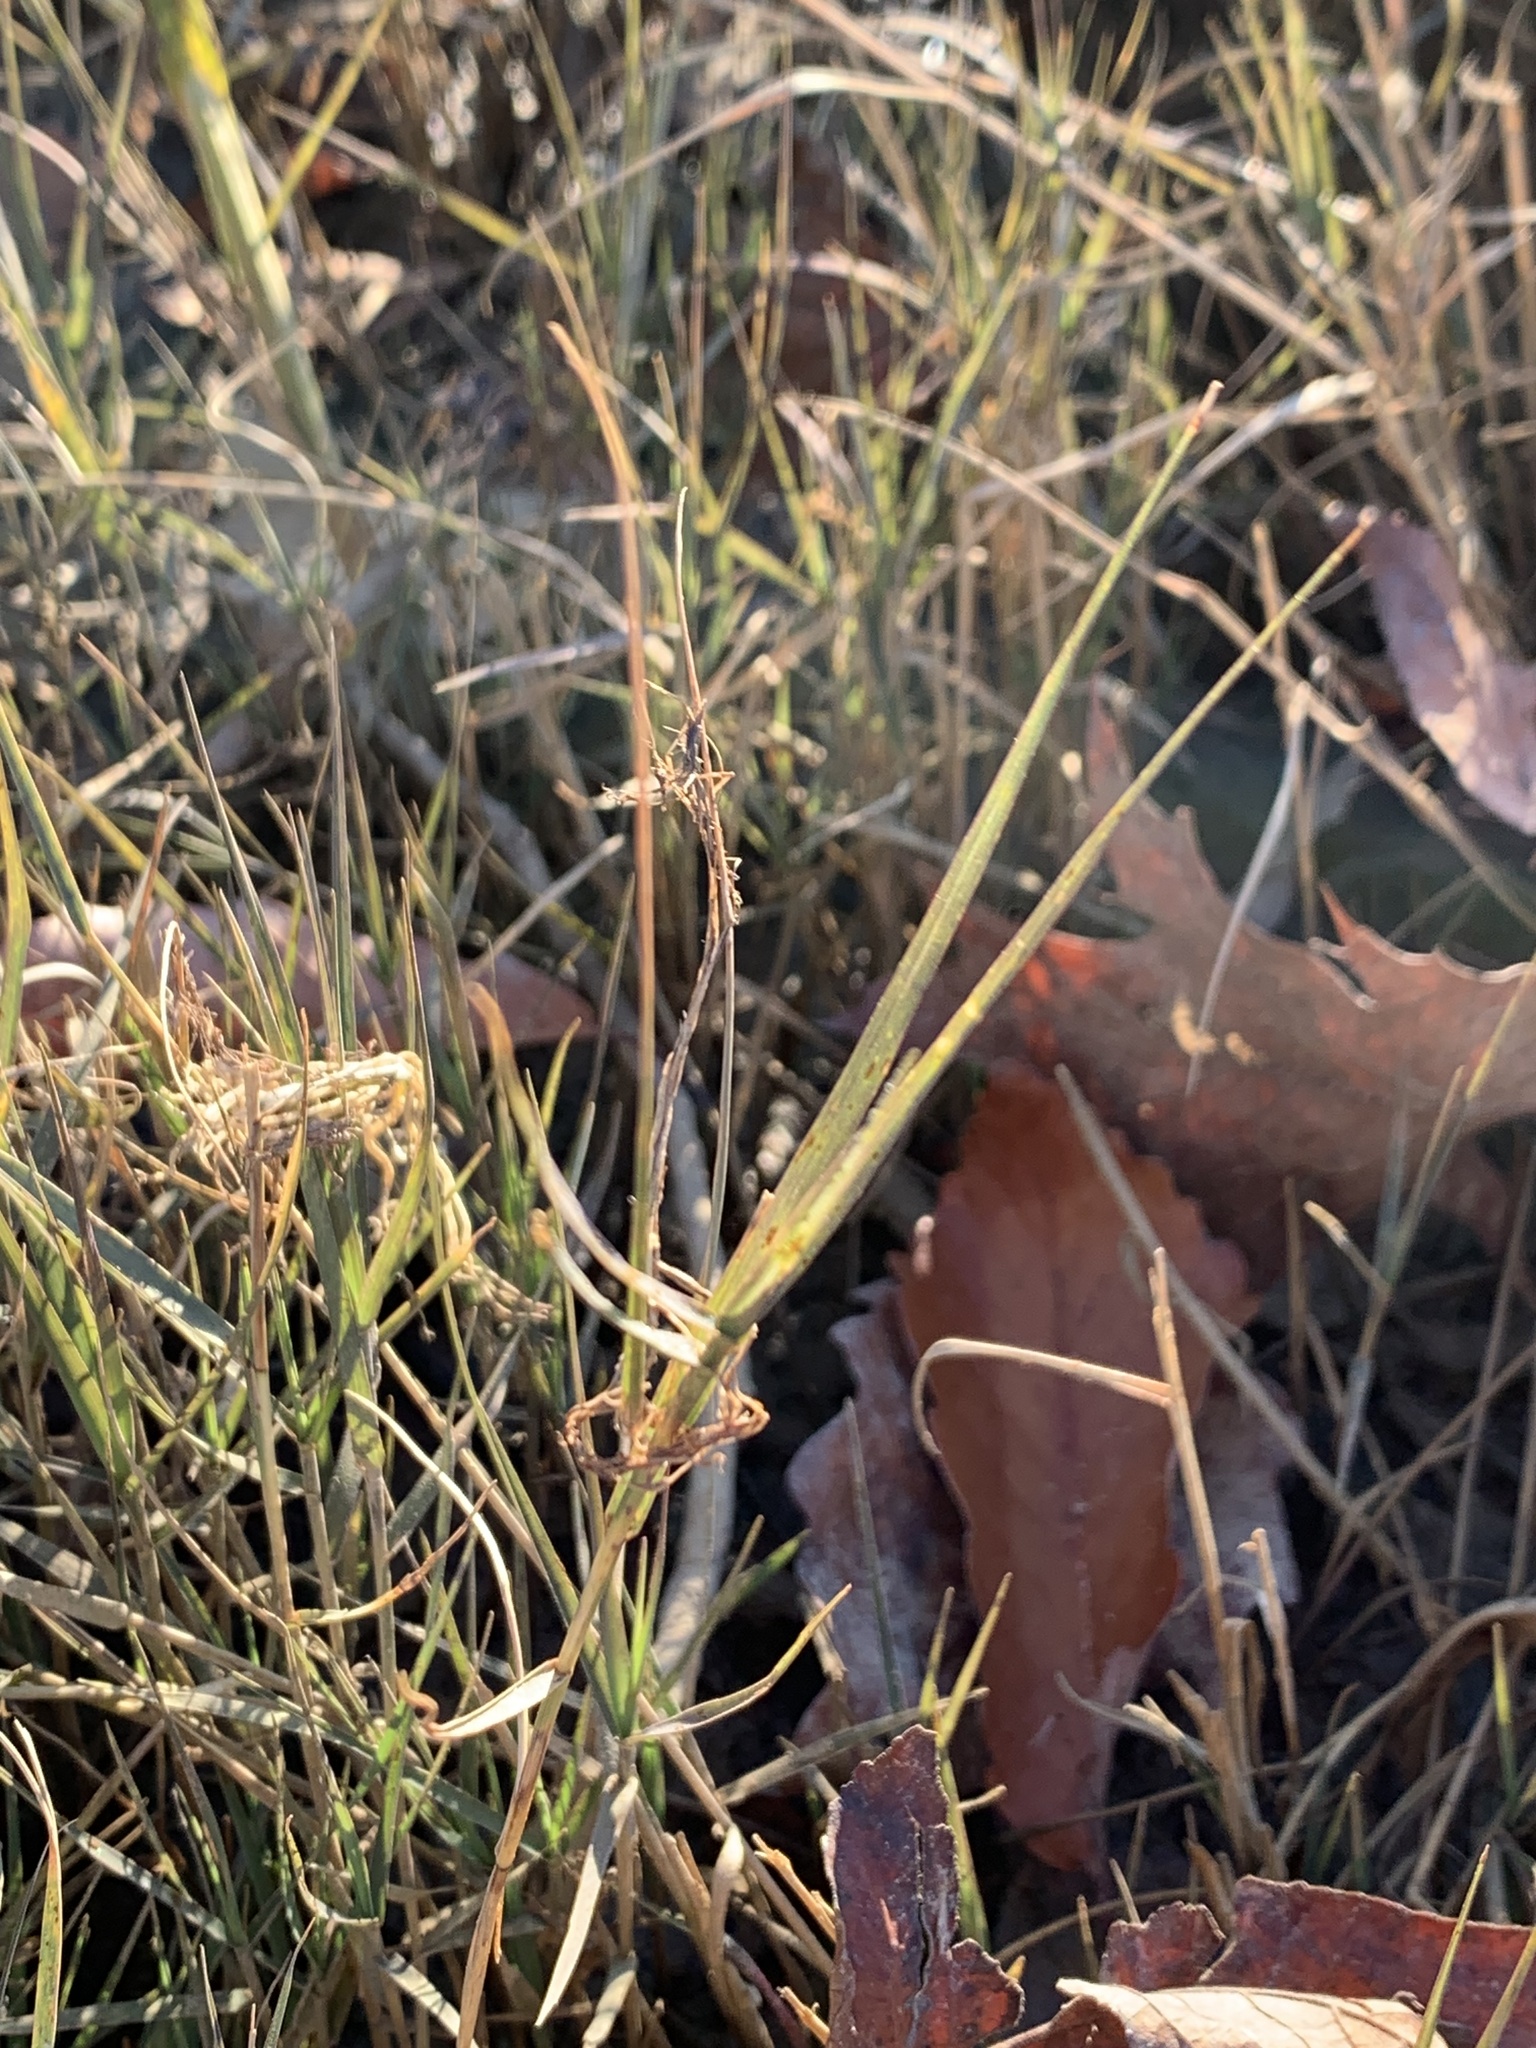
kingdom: Plantae
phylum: Tracheophyta
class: Liliopsida
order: Poales
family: Poaceae
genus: Distichlis
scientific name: Distichlis spicata
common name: Saltgrass
